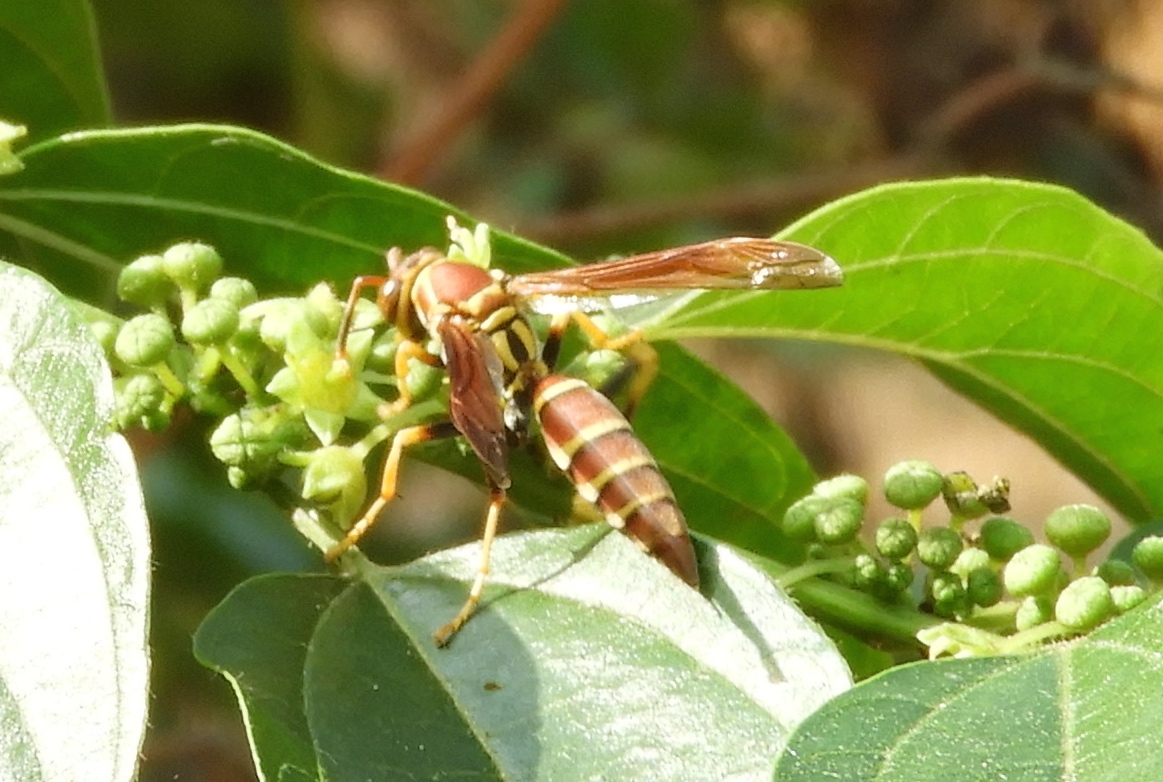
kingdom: Animalia
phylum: Arthropoda
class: Insecta
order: Hymenoptera
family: Eumenidae
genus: Polistes
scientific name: Polistes instabilis
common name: Unstable paper wasp
